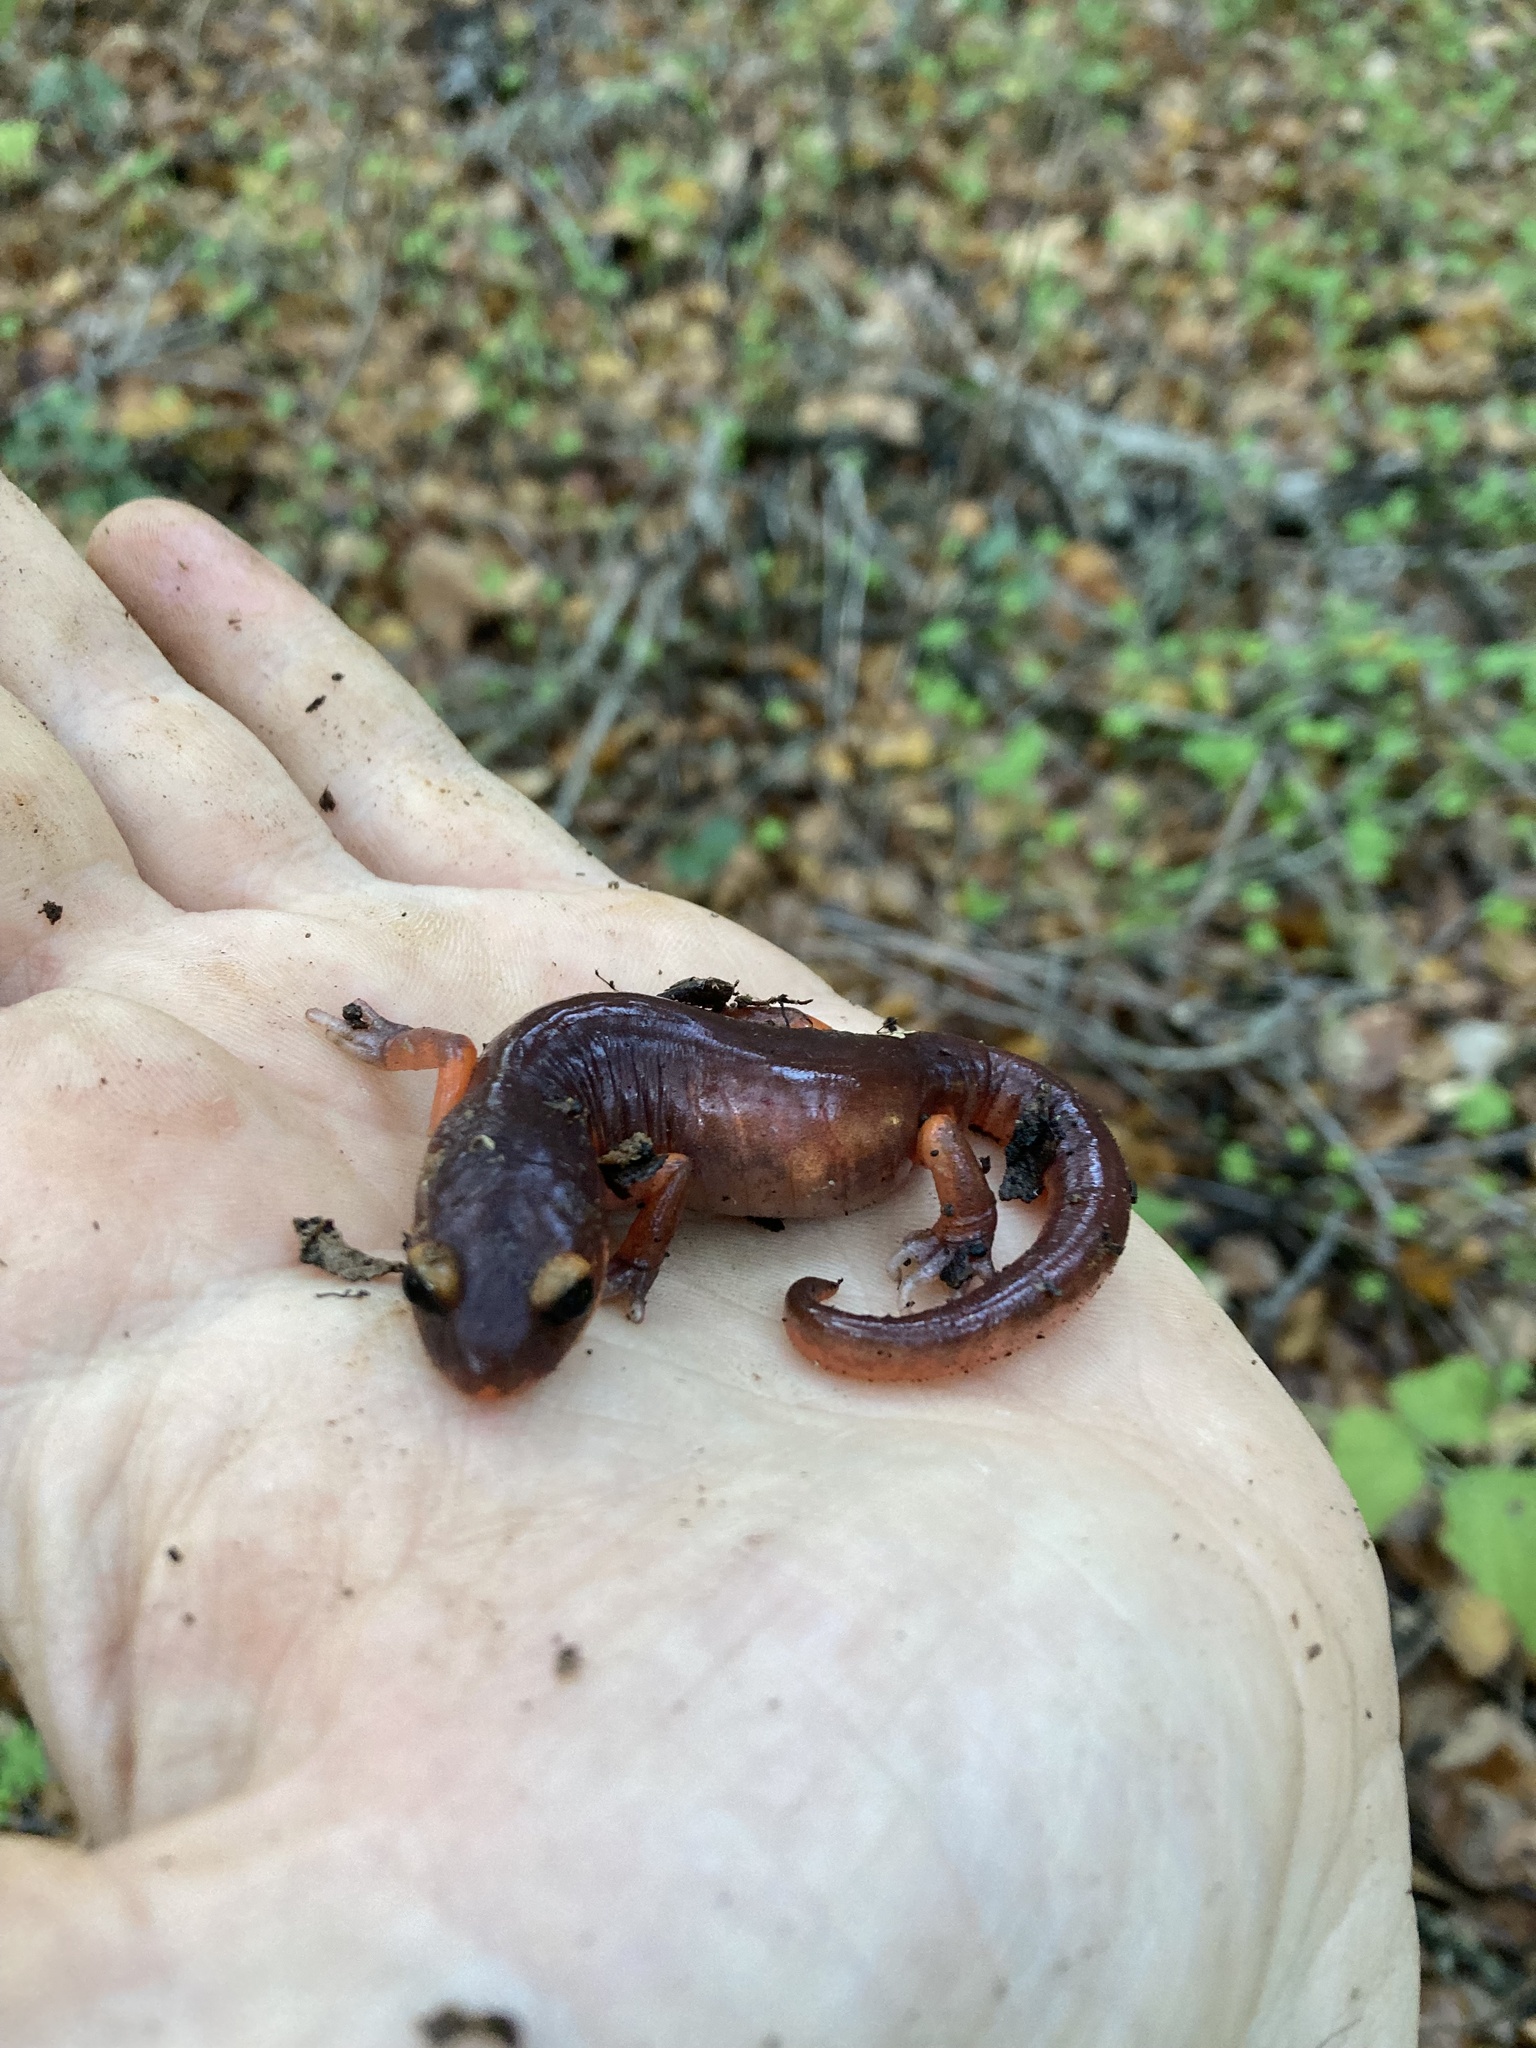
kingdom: Animalia
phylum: Chordata
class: Amphibia
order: Caudata
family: Plethodontidae
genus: Ensatina
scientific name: Ensatina eschscholtzii
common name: Ensatina
